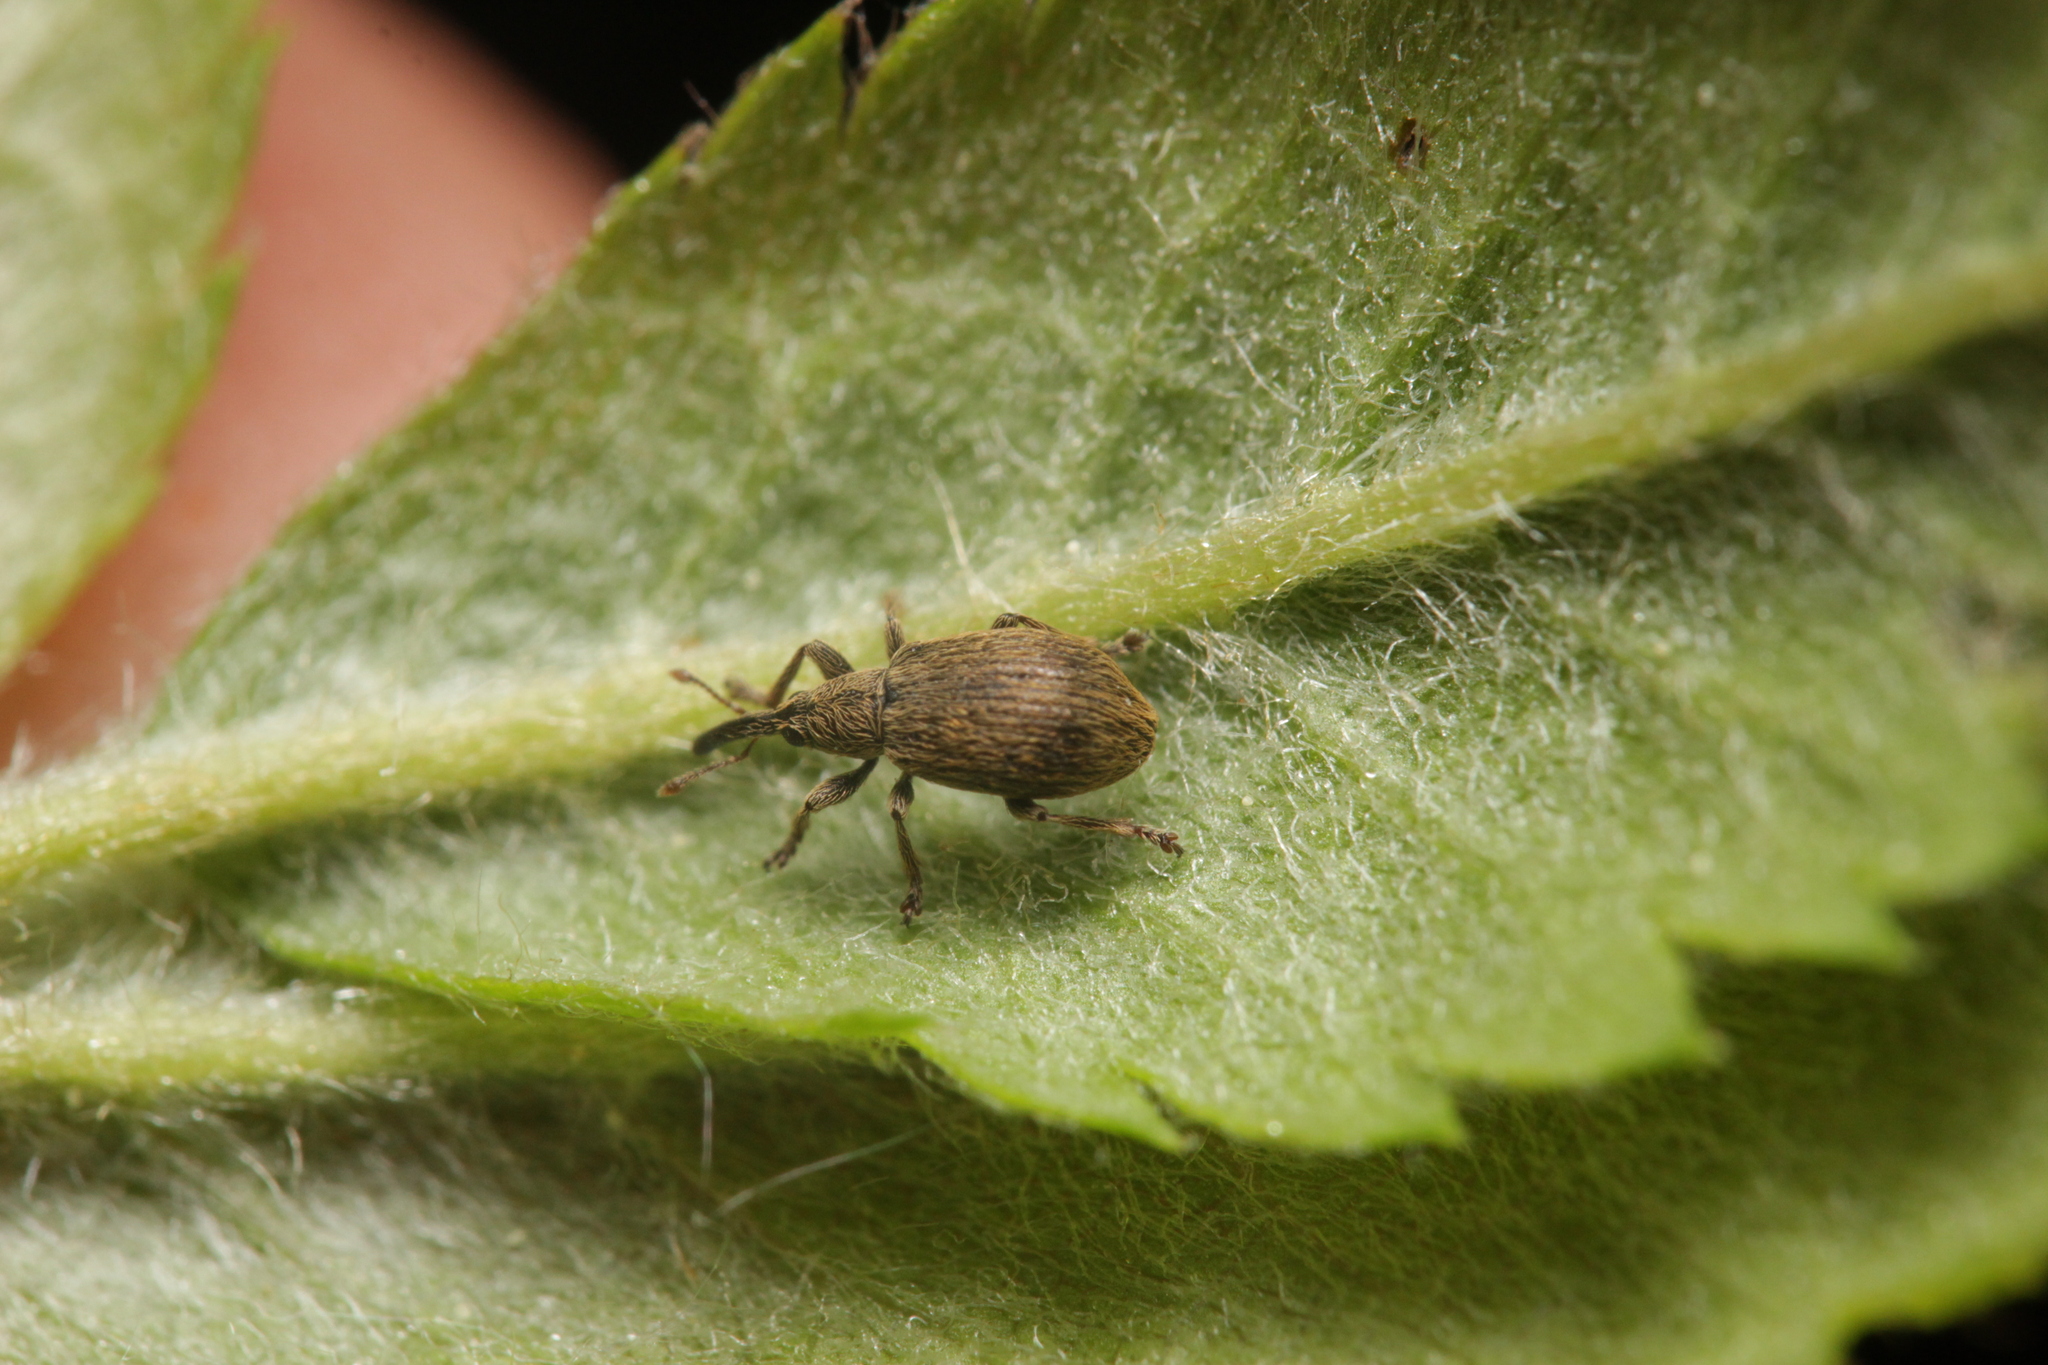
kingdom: Animalia
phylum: Arthropoda
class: Insecta
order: Coleoptera
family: Apionidae
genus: Trichopterapion
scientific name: Trichopterapion holosericeum
